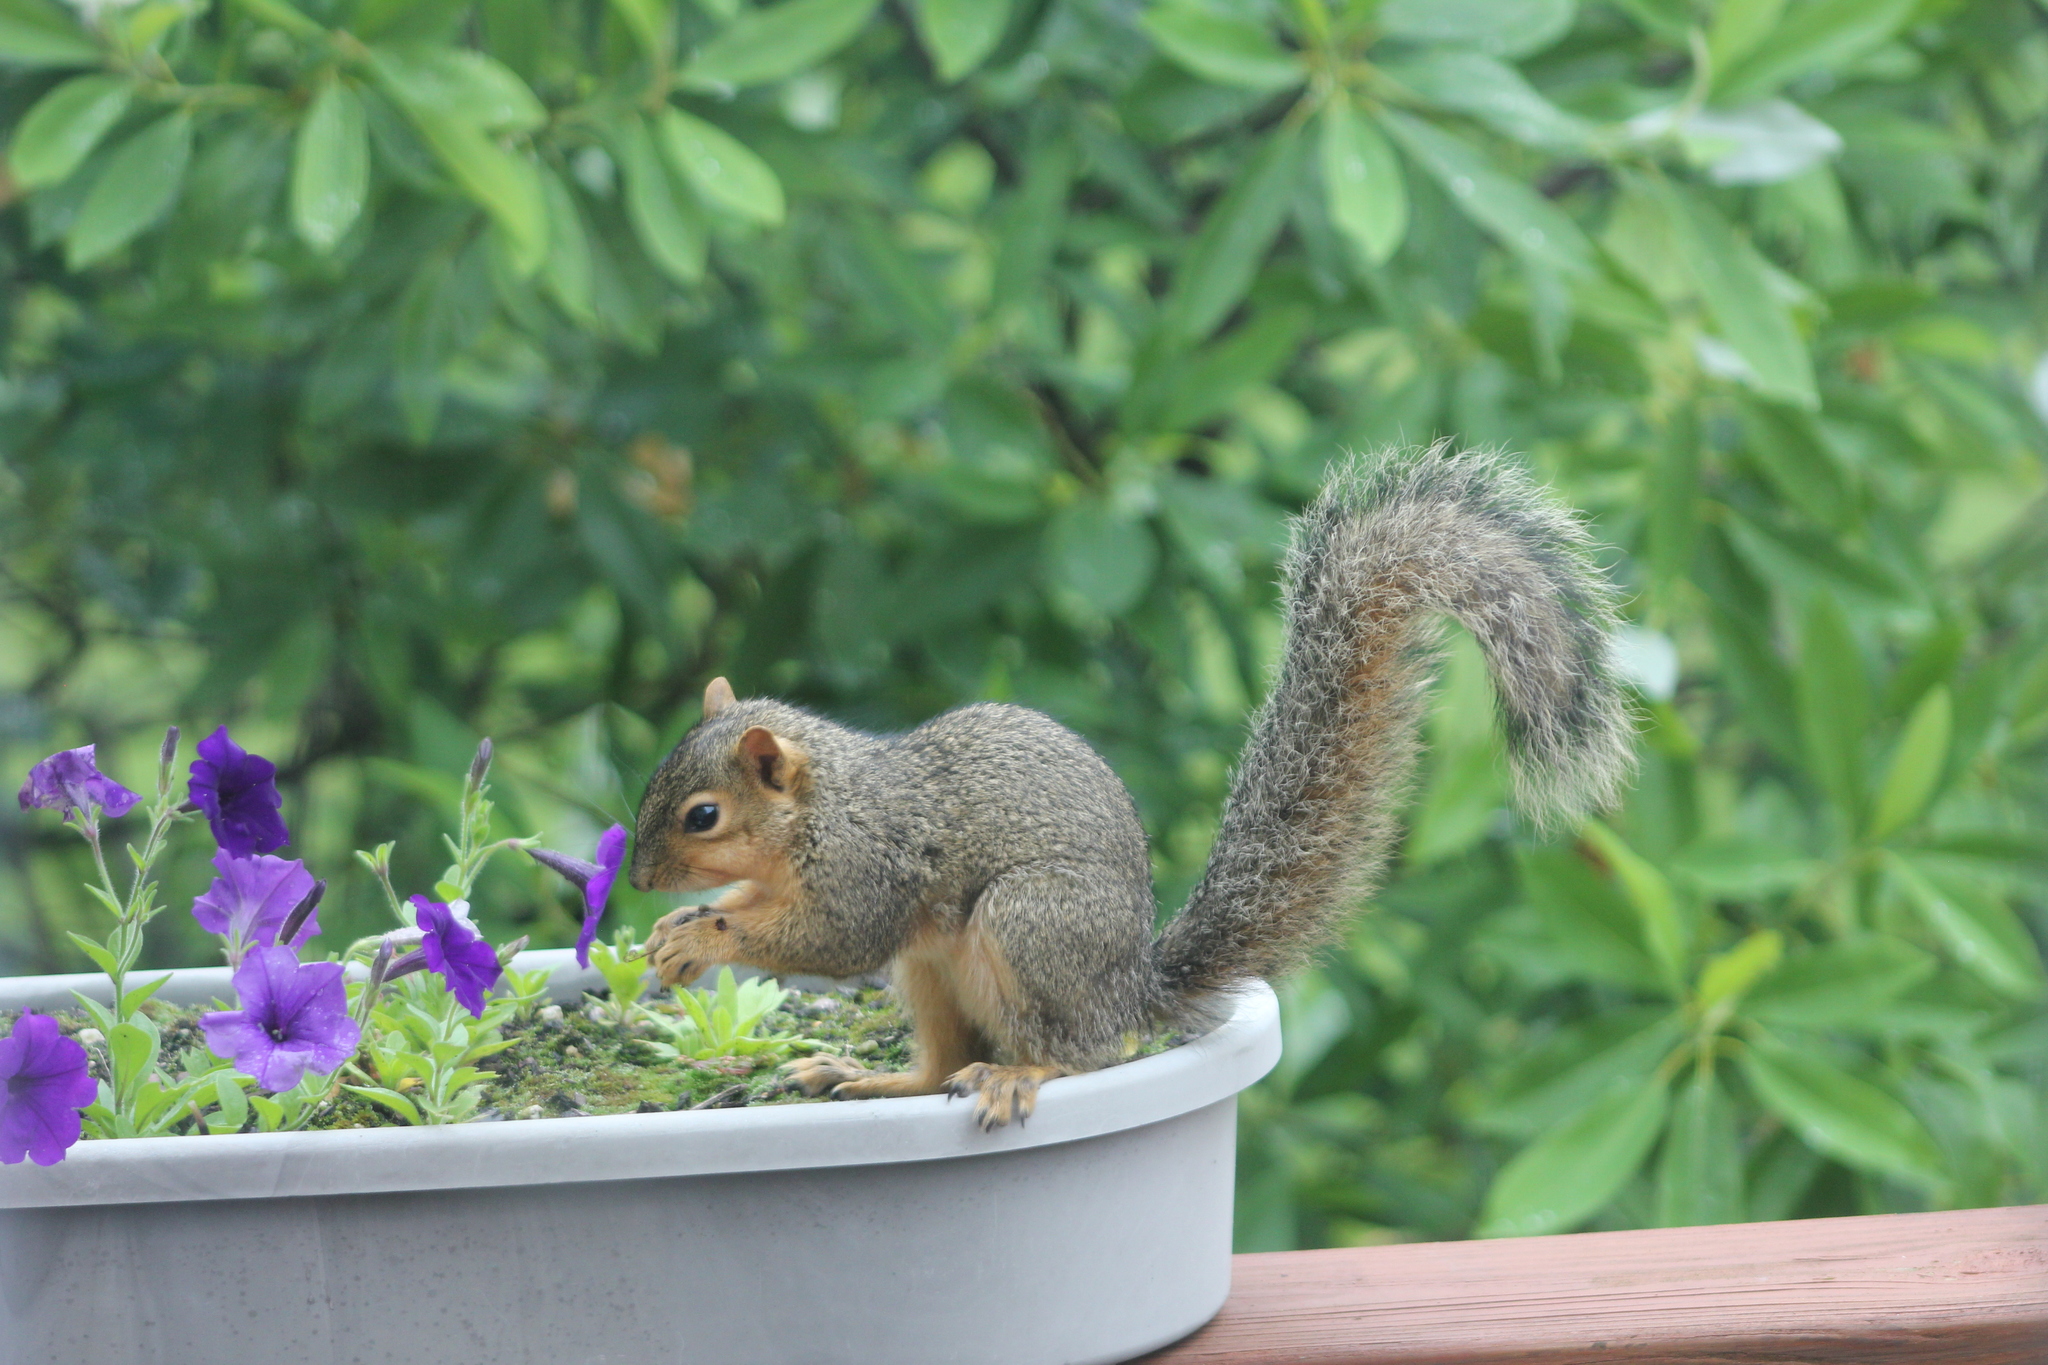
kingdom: Animalia
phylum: Chordata
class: Mammalia
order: Rodentia
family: Sciuridae
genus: Sciurus
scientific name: Sciurus niger
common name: Fox squirrel
